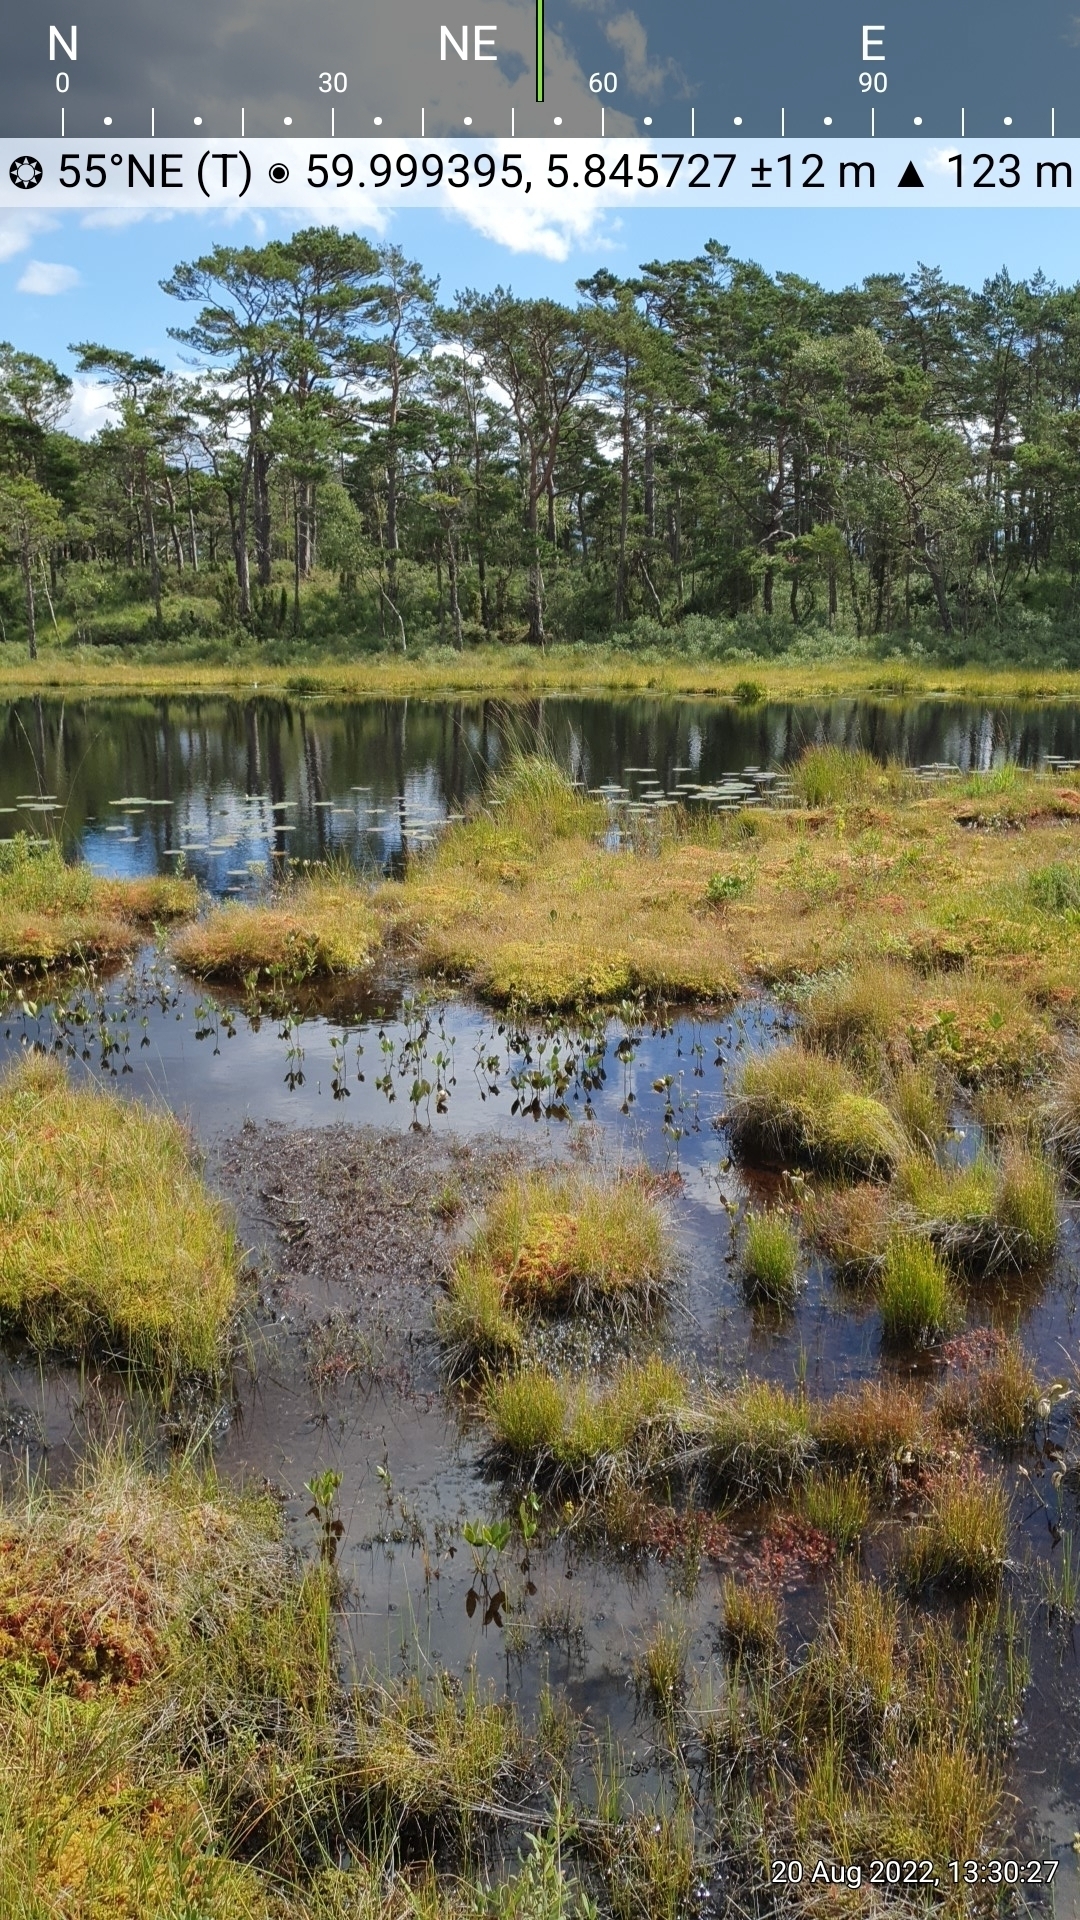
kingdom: Plantae
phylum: Tracheophyta
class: Liliopsida
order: Dioscoreales
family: Nartheciaceae
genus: Narthecium
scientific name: Narthecium ossifragum
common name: Bog asphodel
